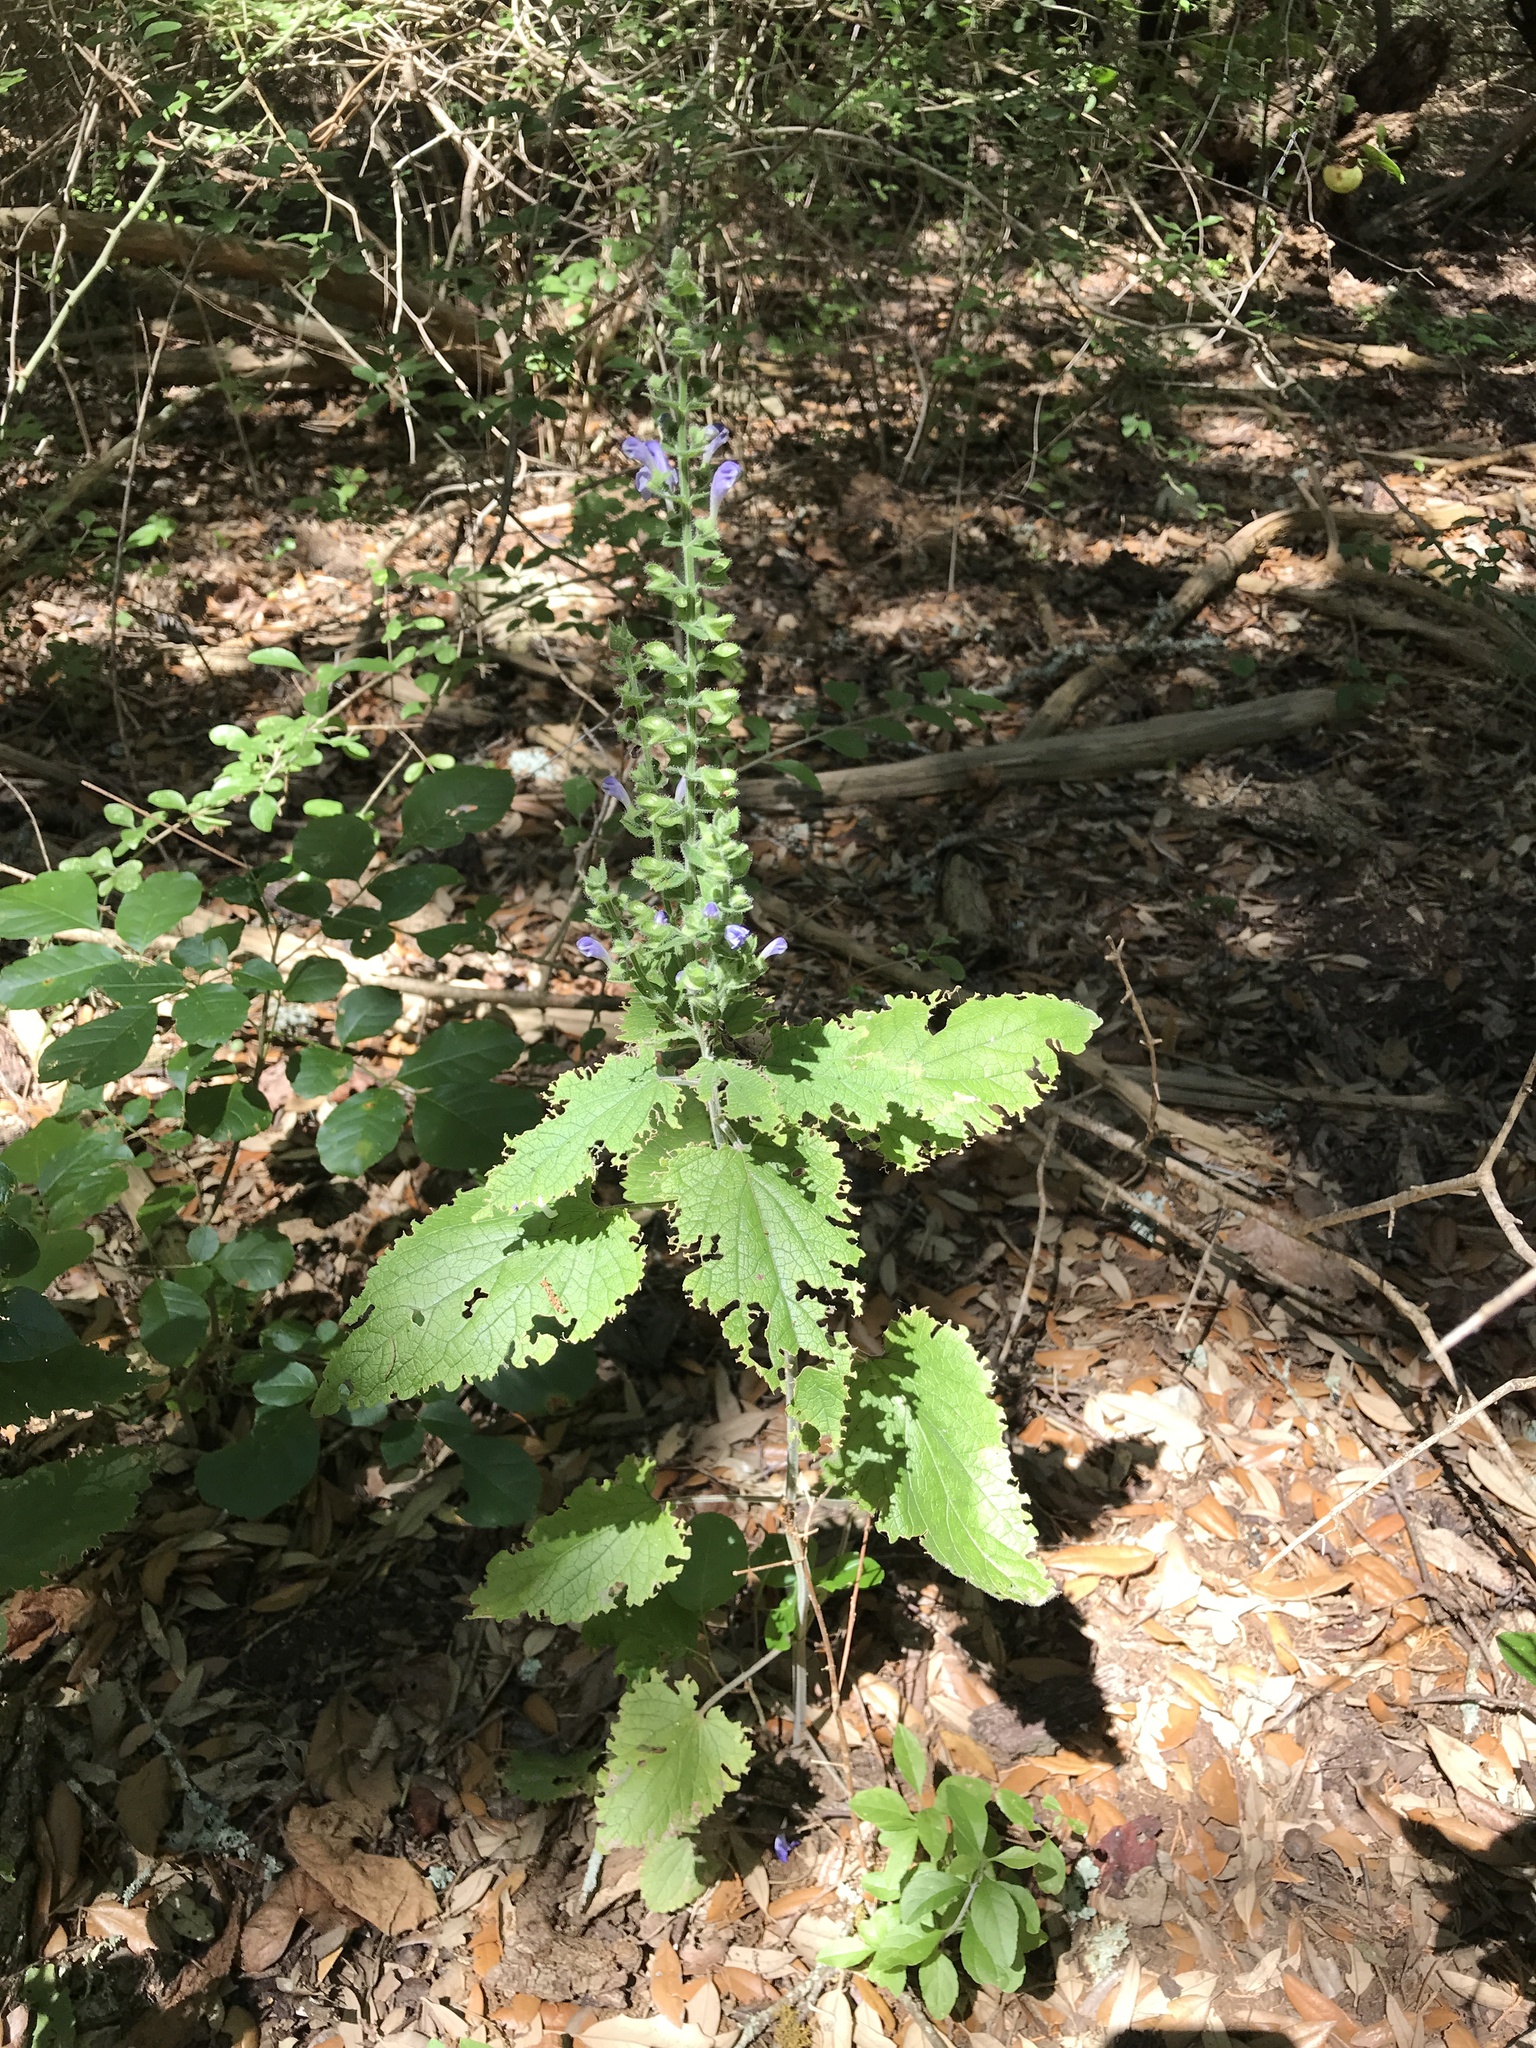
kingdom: Plantae
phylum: Tracheophyta
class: Magnoliopsida
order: Lamiales
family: Lamiaceae
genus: Scutellaria
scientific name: Scutellaria ovata
